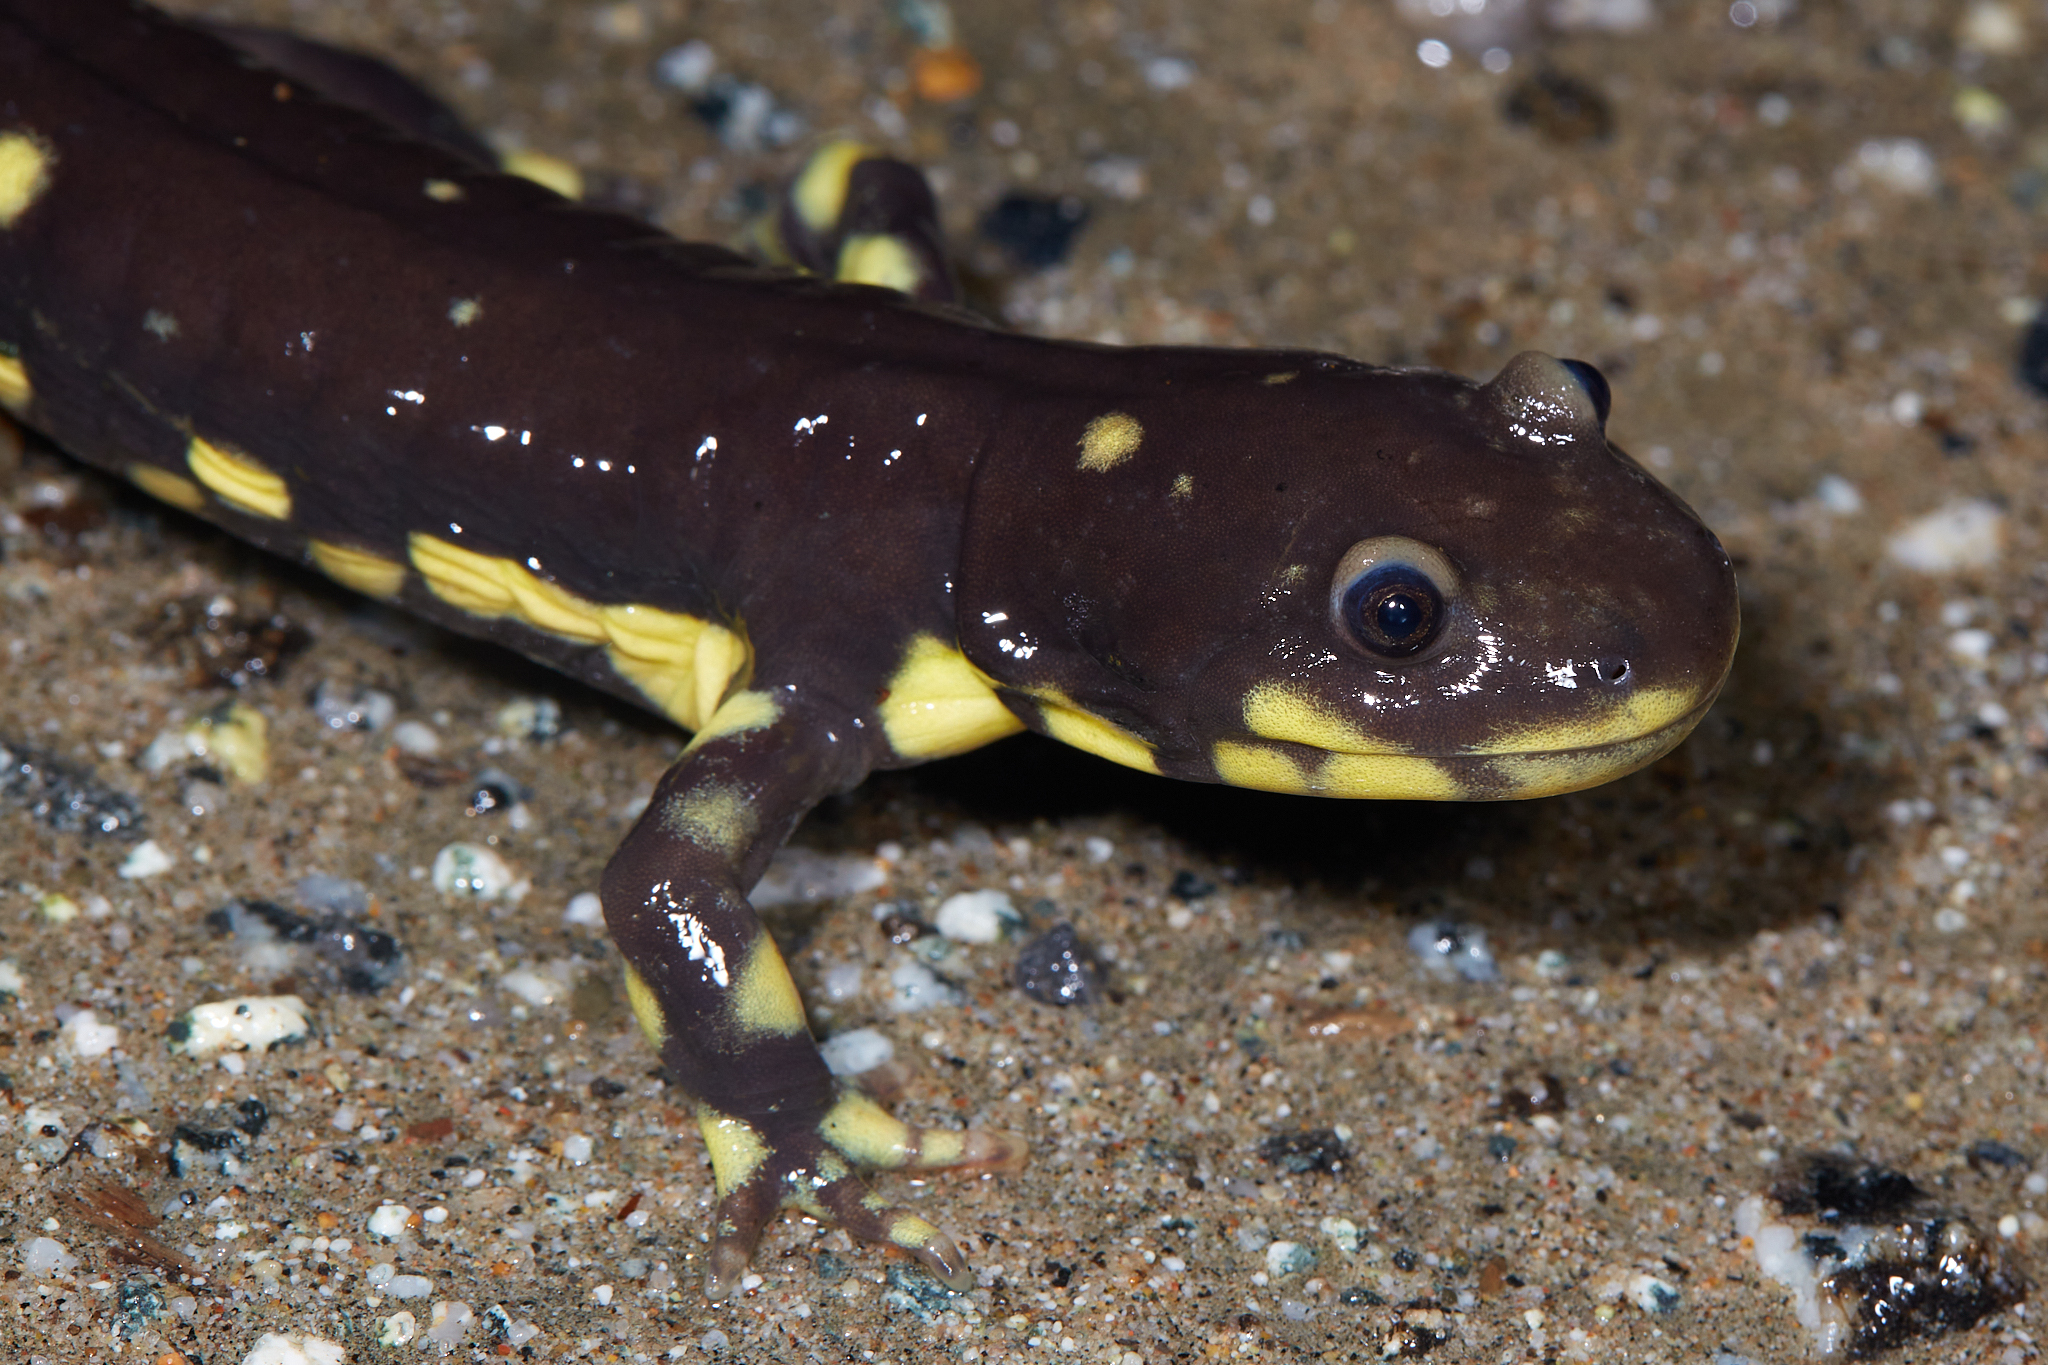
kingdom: Animalia
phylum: Chordata
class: Amphibia
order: Caudata
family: Ambystomatidae
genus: Ambystoma
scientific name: Ambystoma californiense
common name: California tiger salamander
